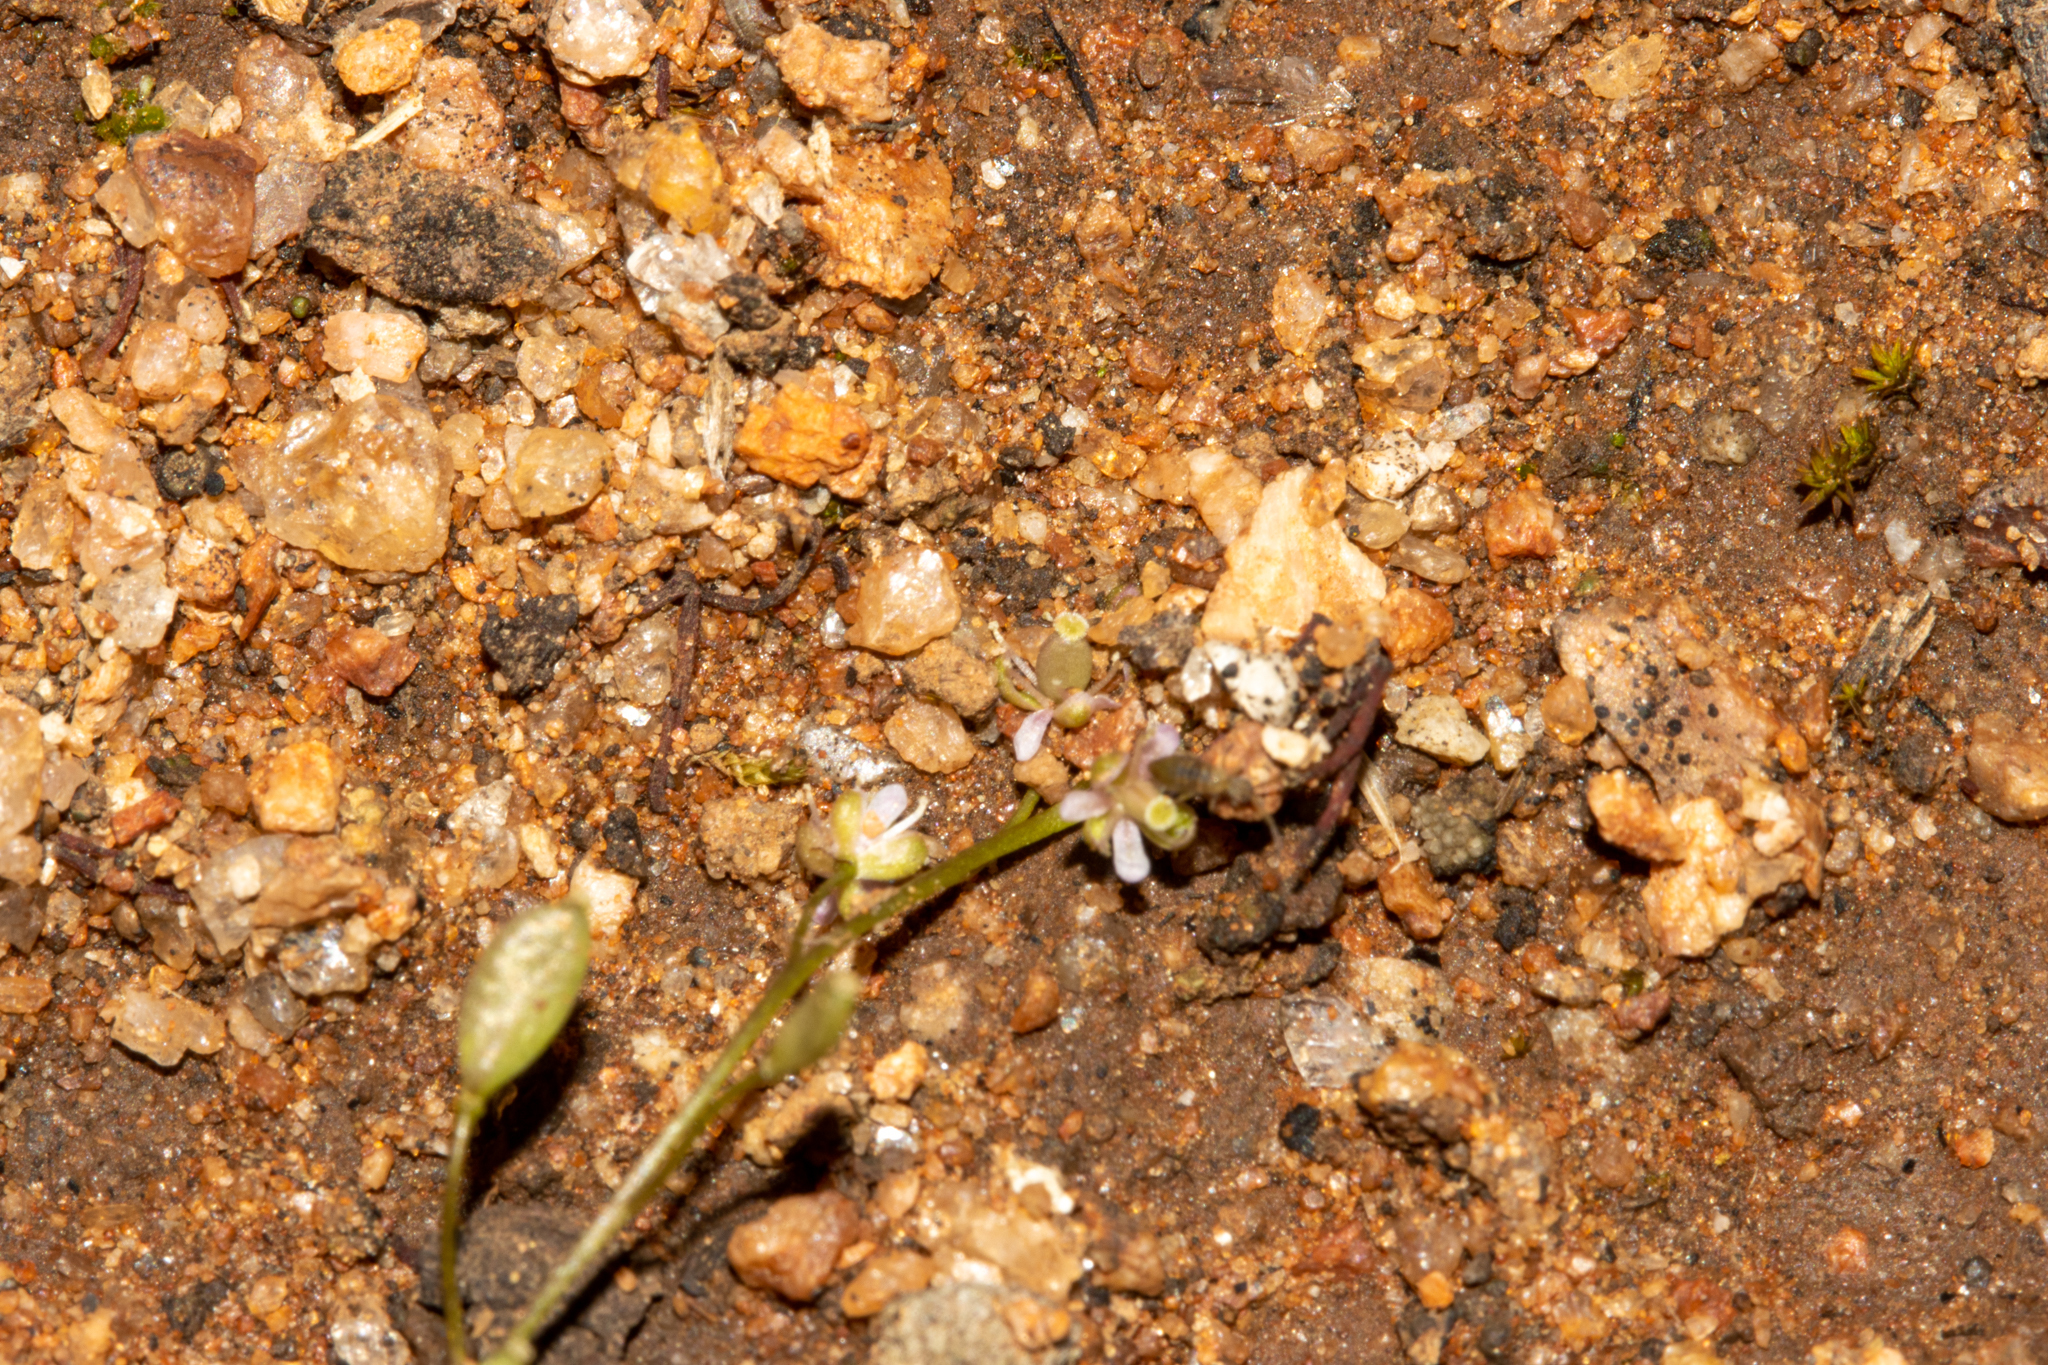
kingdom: Plantae
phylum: Tracheophyta
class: Magnoliopsida
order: Brassicales
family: Brassicaceae
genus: Menkea
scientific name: Menkea australis
